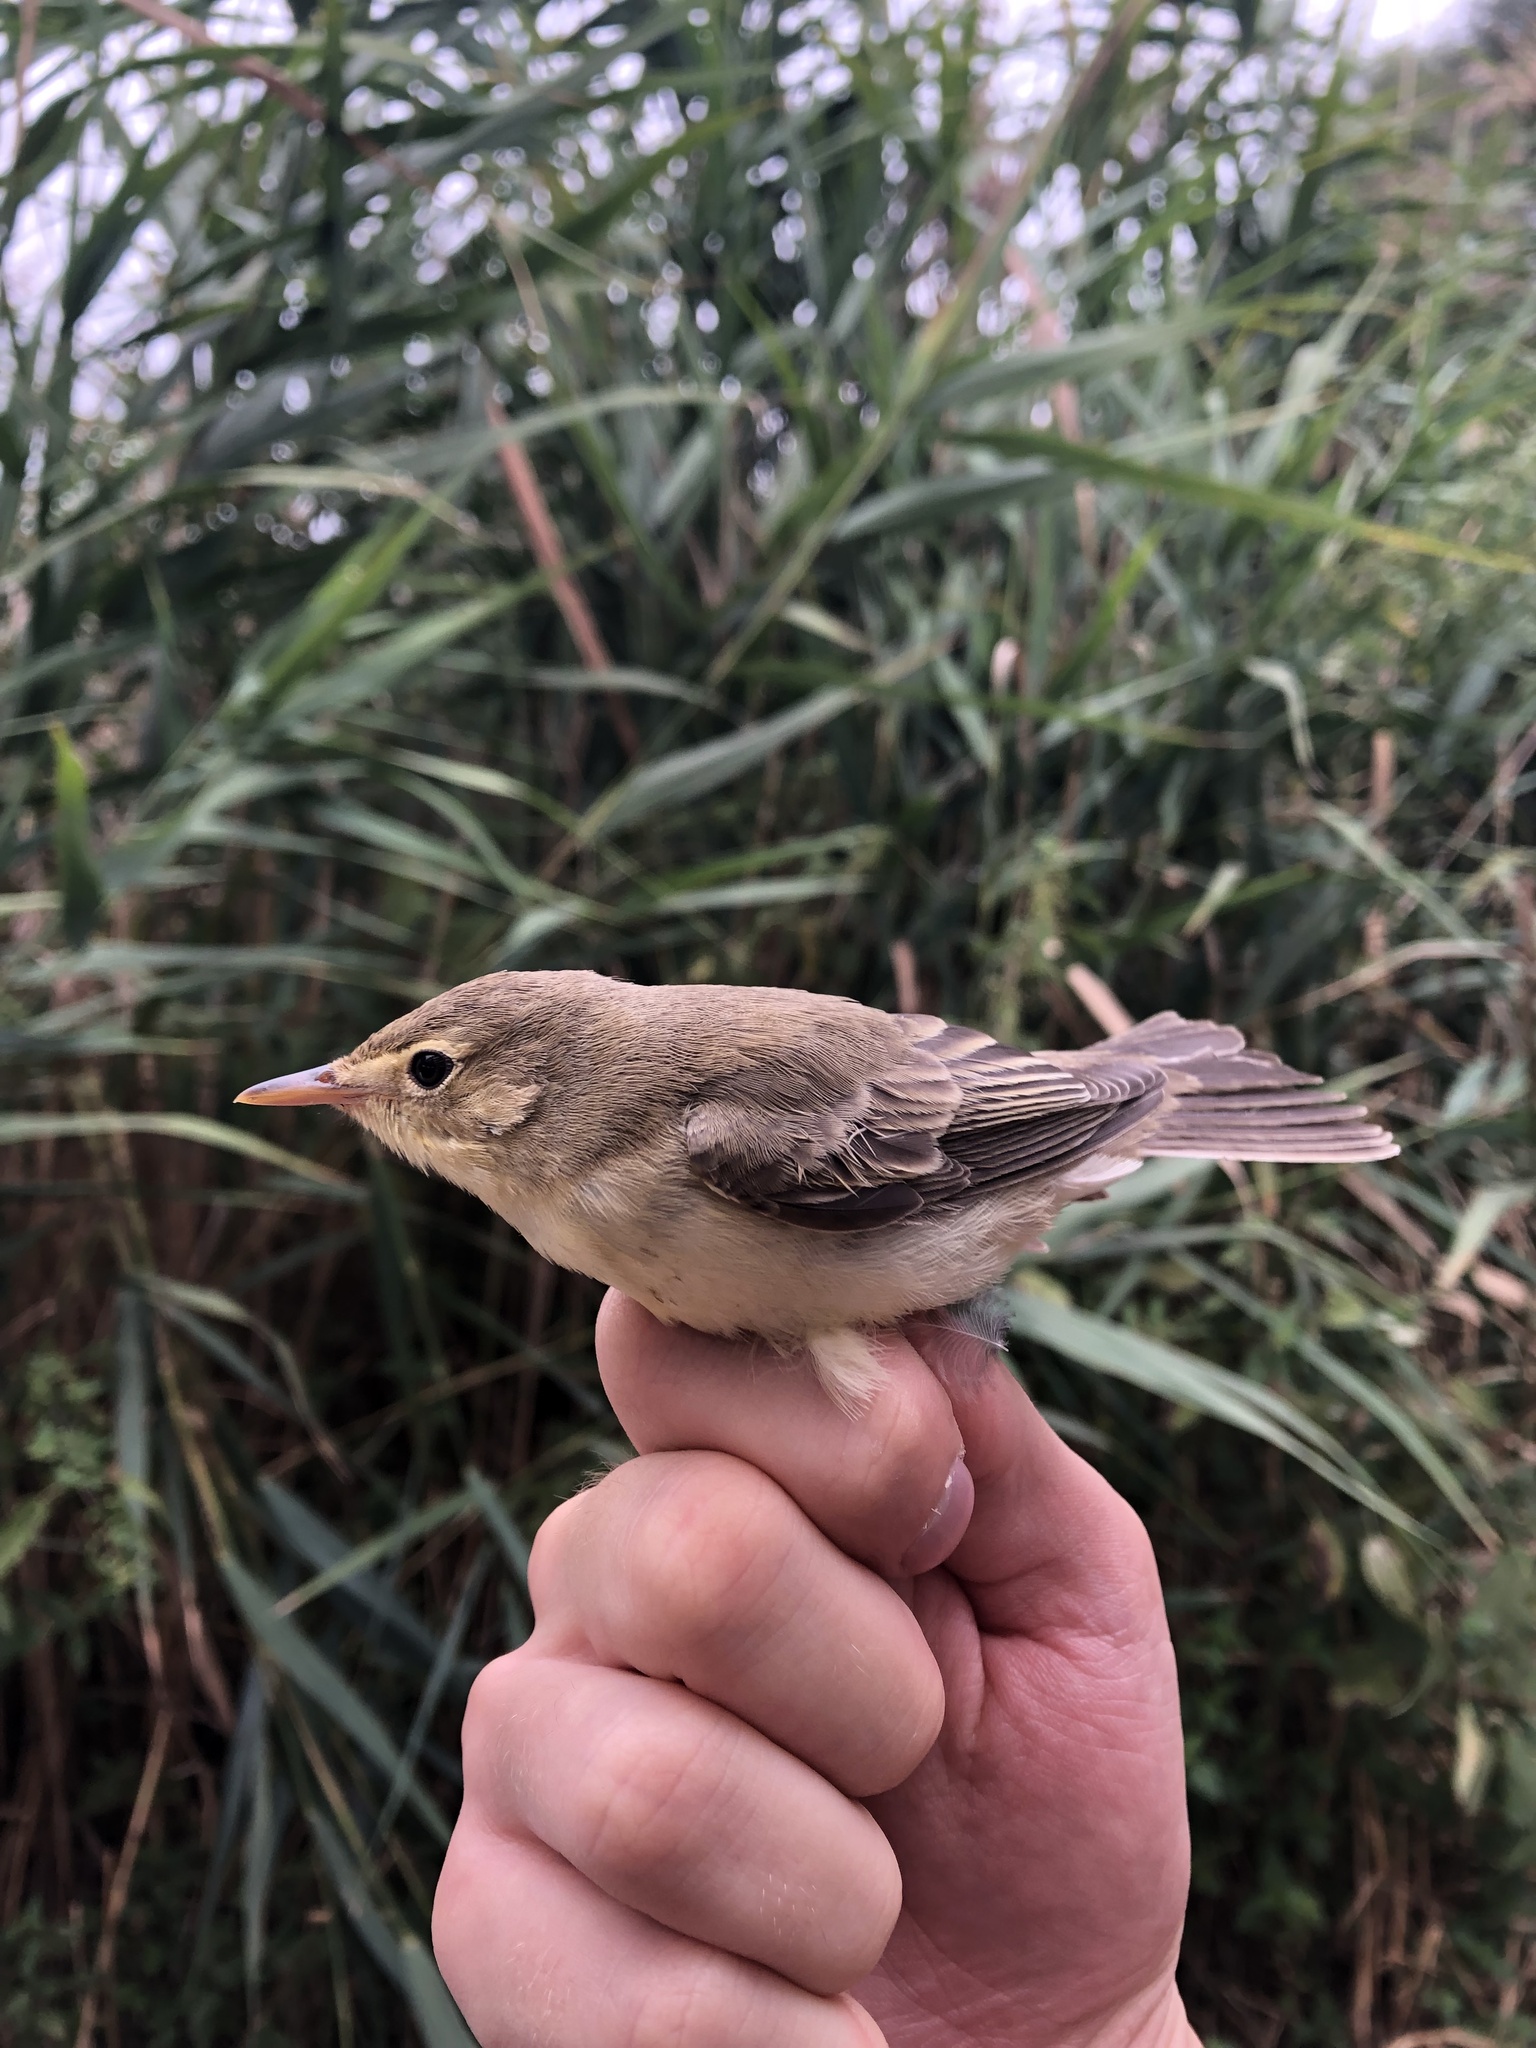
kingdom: Animalia
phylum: Chordata
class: Aves
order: Passeriformes
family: Acrocephalidae
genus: Hippolais
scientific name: Hippolais icterina
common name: Icterine warbler
